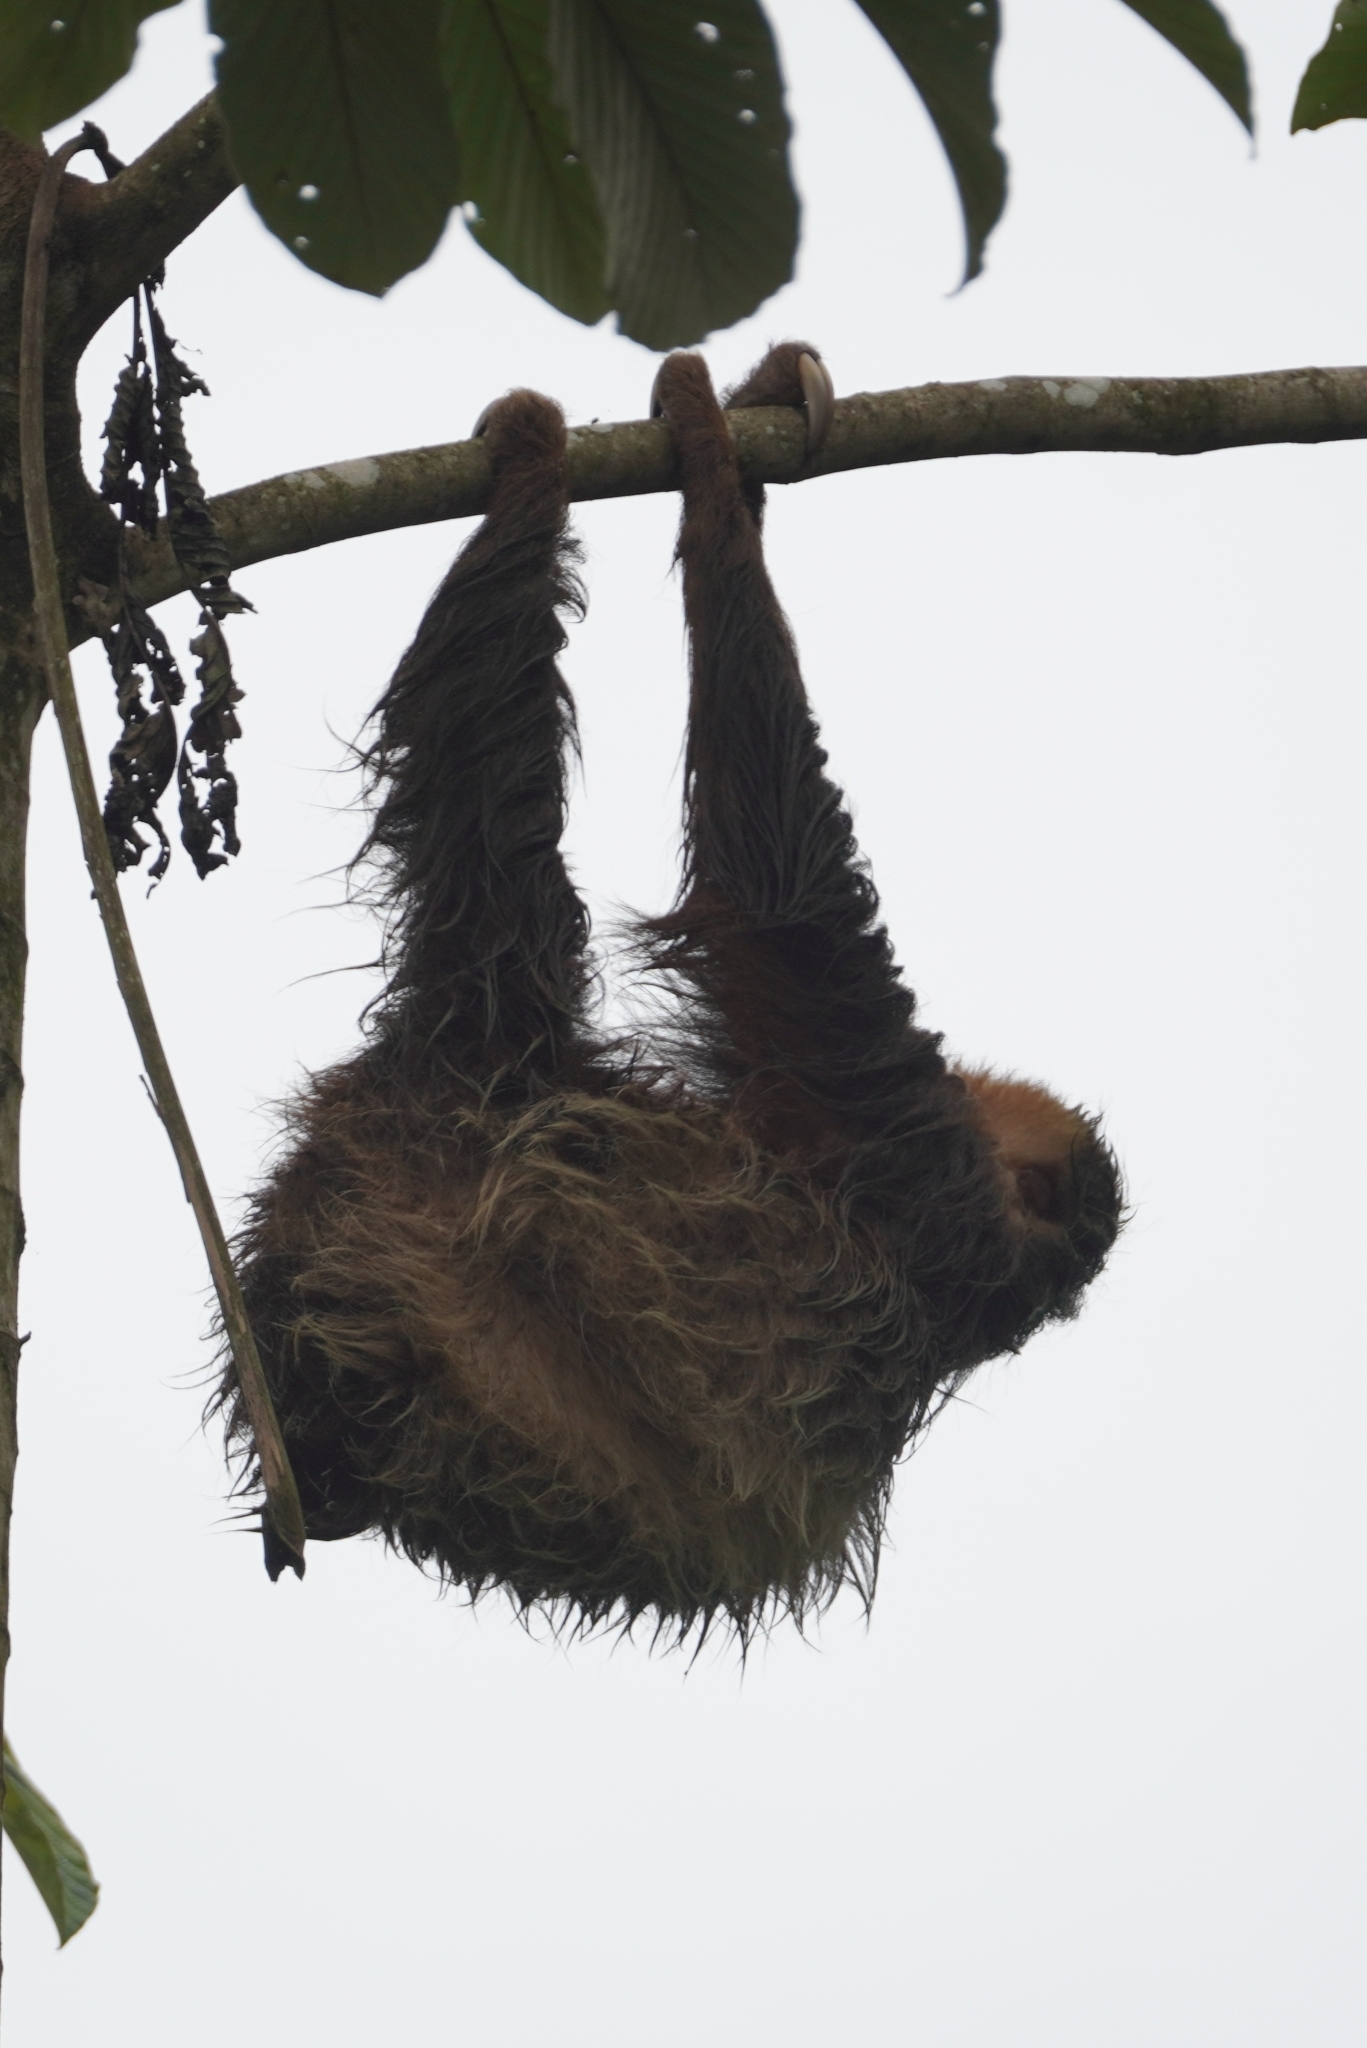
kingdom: Animalia
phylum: Chordata
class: Mammalia
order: Pilosa
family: Megalonychidae
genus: Choloepus
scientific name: Choloepus hoffmanni
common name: Hoffmann's two-toed sloth
